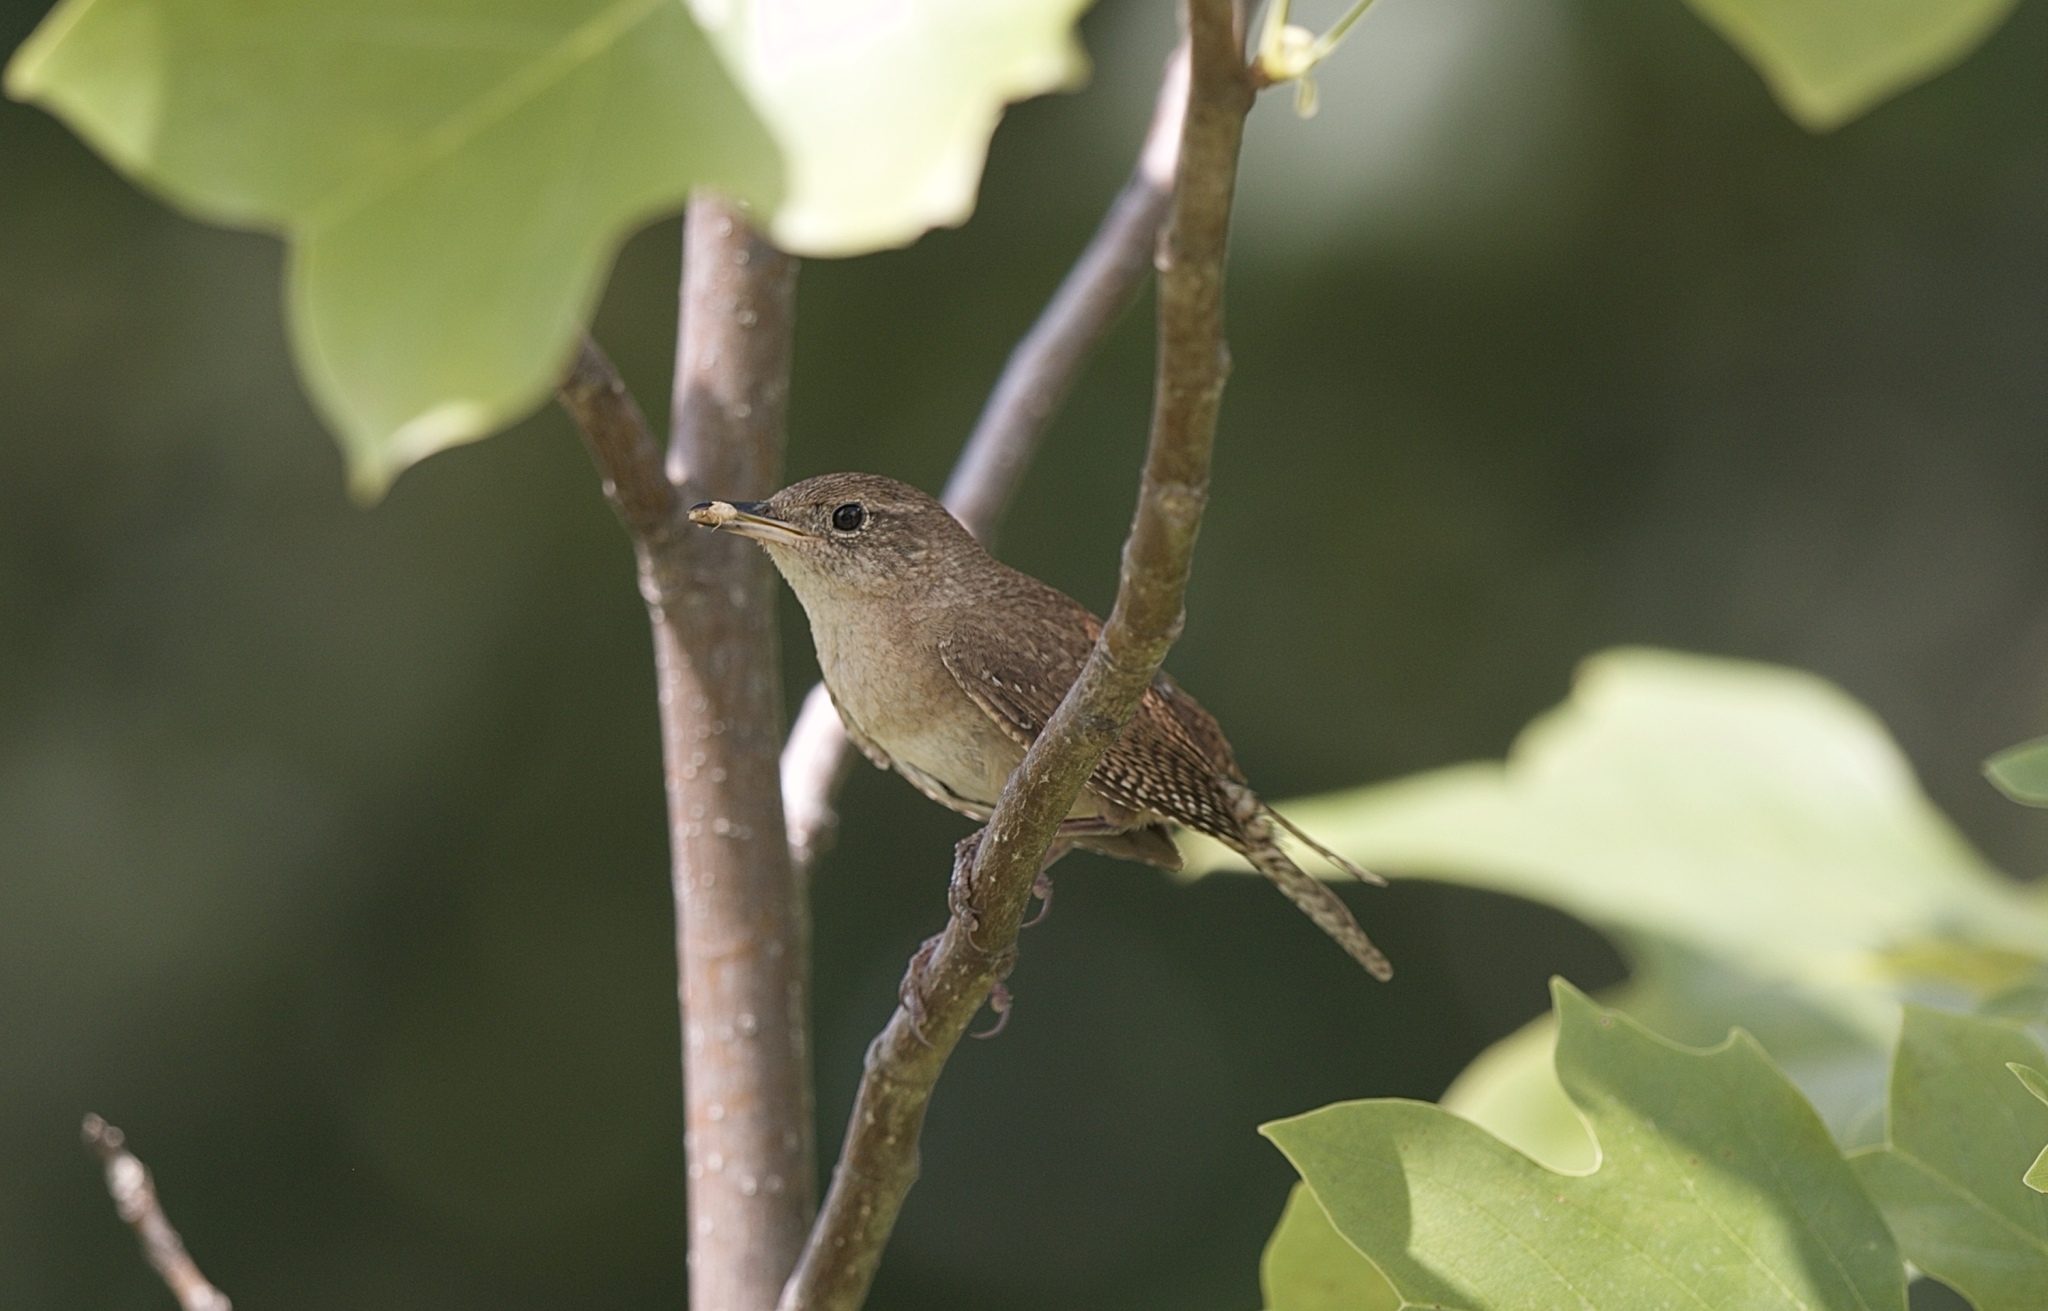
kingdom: Animalia
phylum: Chordata
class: Aves
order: Passeriformes
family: Troglodytidae
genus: Troglodytes
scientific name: Troglodytes aedon
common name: House wren
